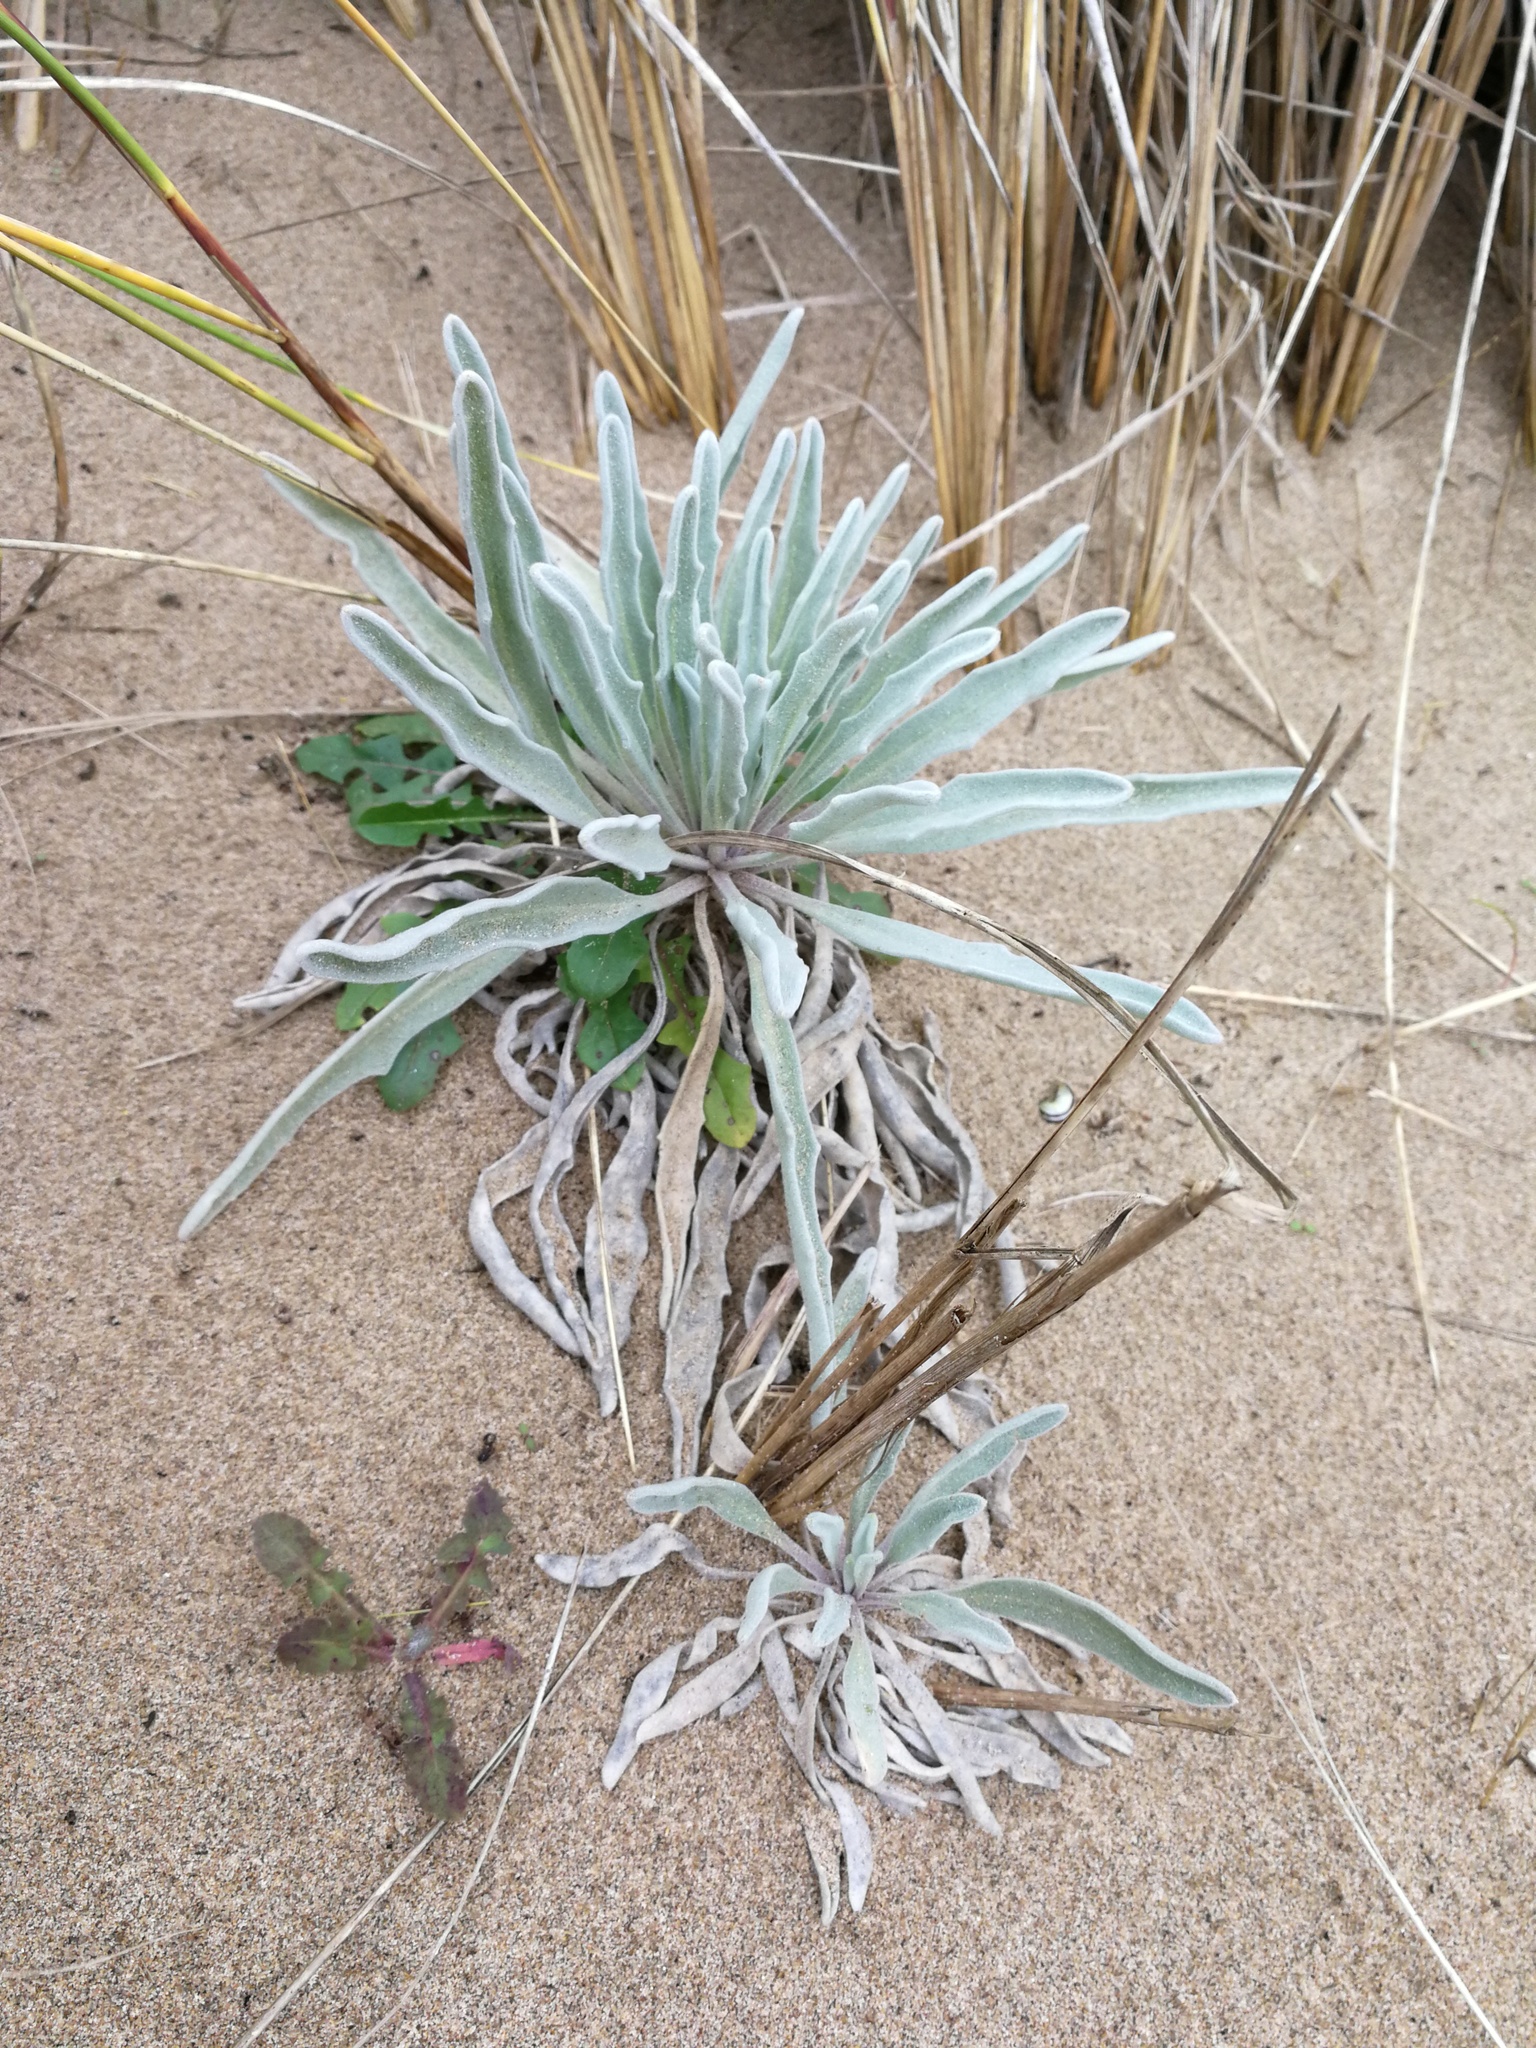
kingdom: Plantae
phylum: Tracheophyta
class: Magnoliopsida
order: Brassicales
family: Brassicaceae
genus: Matthiola
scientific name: Matthiola sinuata
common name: Sea stock
